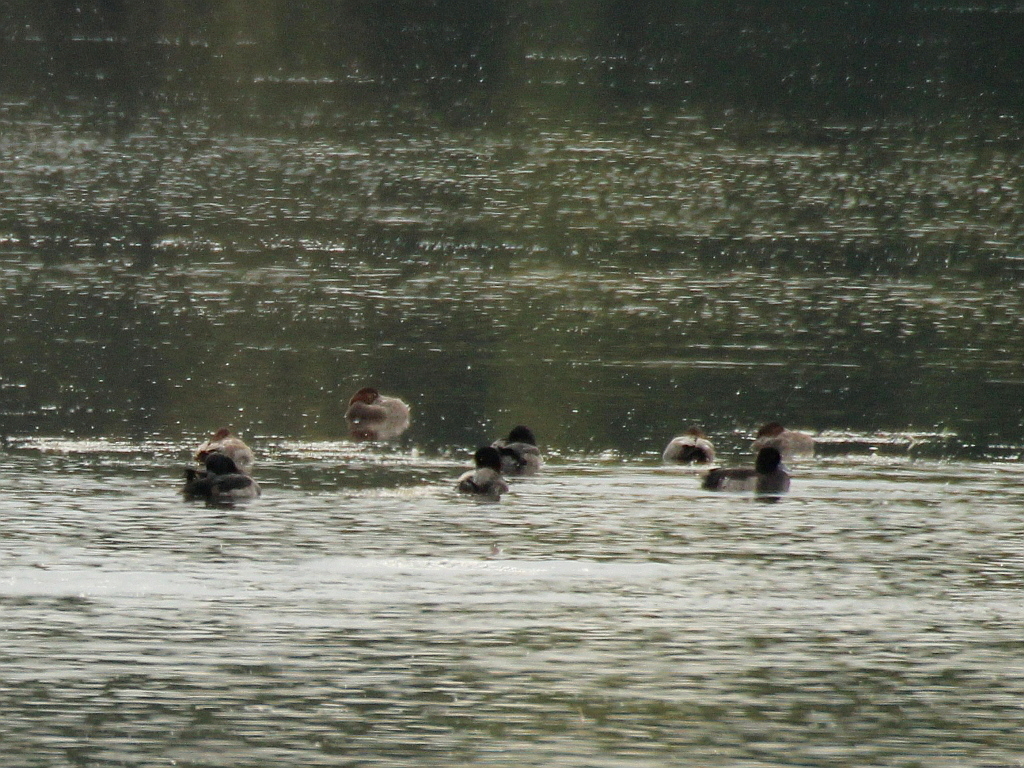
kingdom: Animalia
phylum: Chordata
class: Aves
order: Anseriformes
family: Anatidae
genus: Aythya
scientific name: Aythya fuligula
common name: Tufted duck
